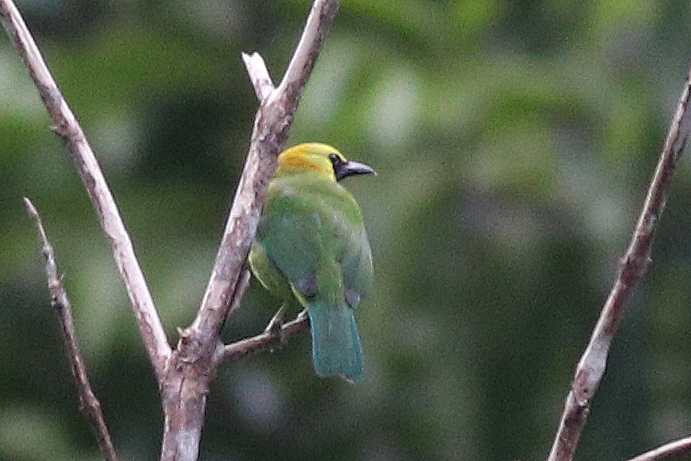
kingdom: Animalia
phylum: Chordata
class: Aves
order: Passeriformes
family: Chloropseidae
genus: Chloropsis
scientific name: Chloropsis moluccensis
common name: Blue-winged leafbird
